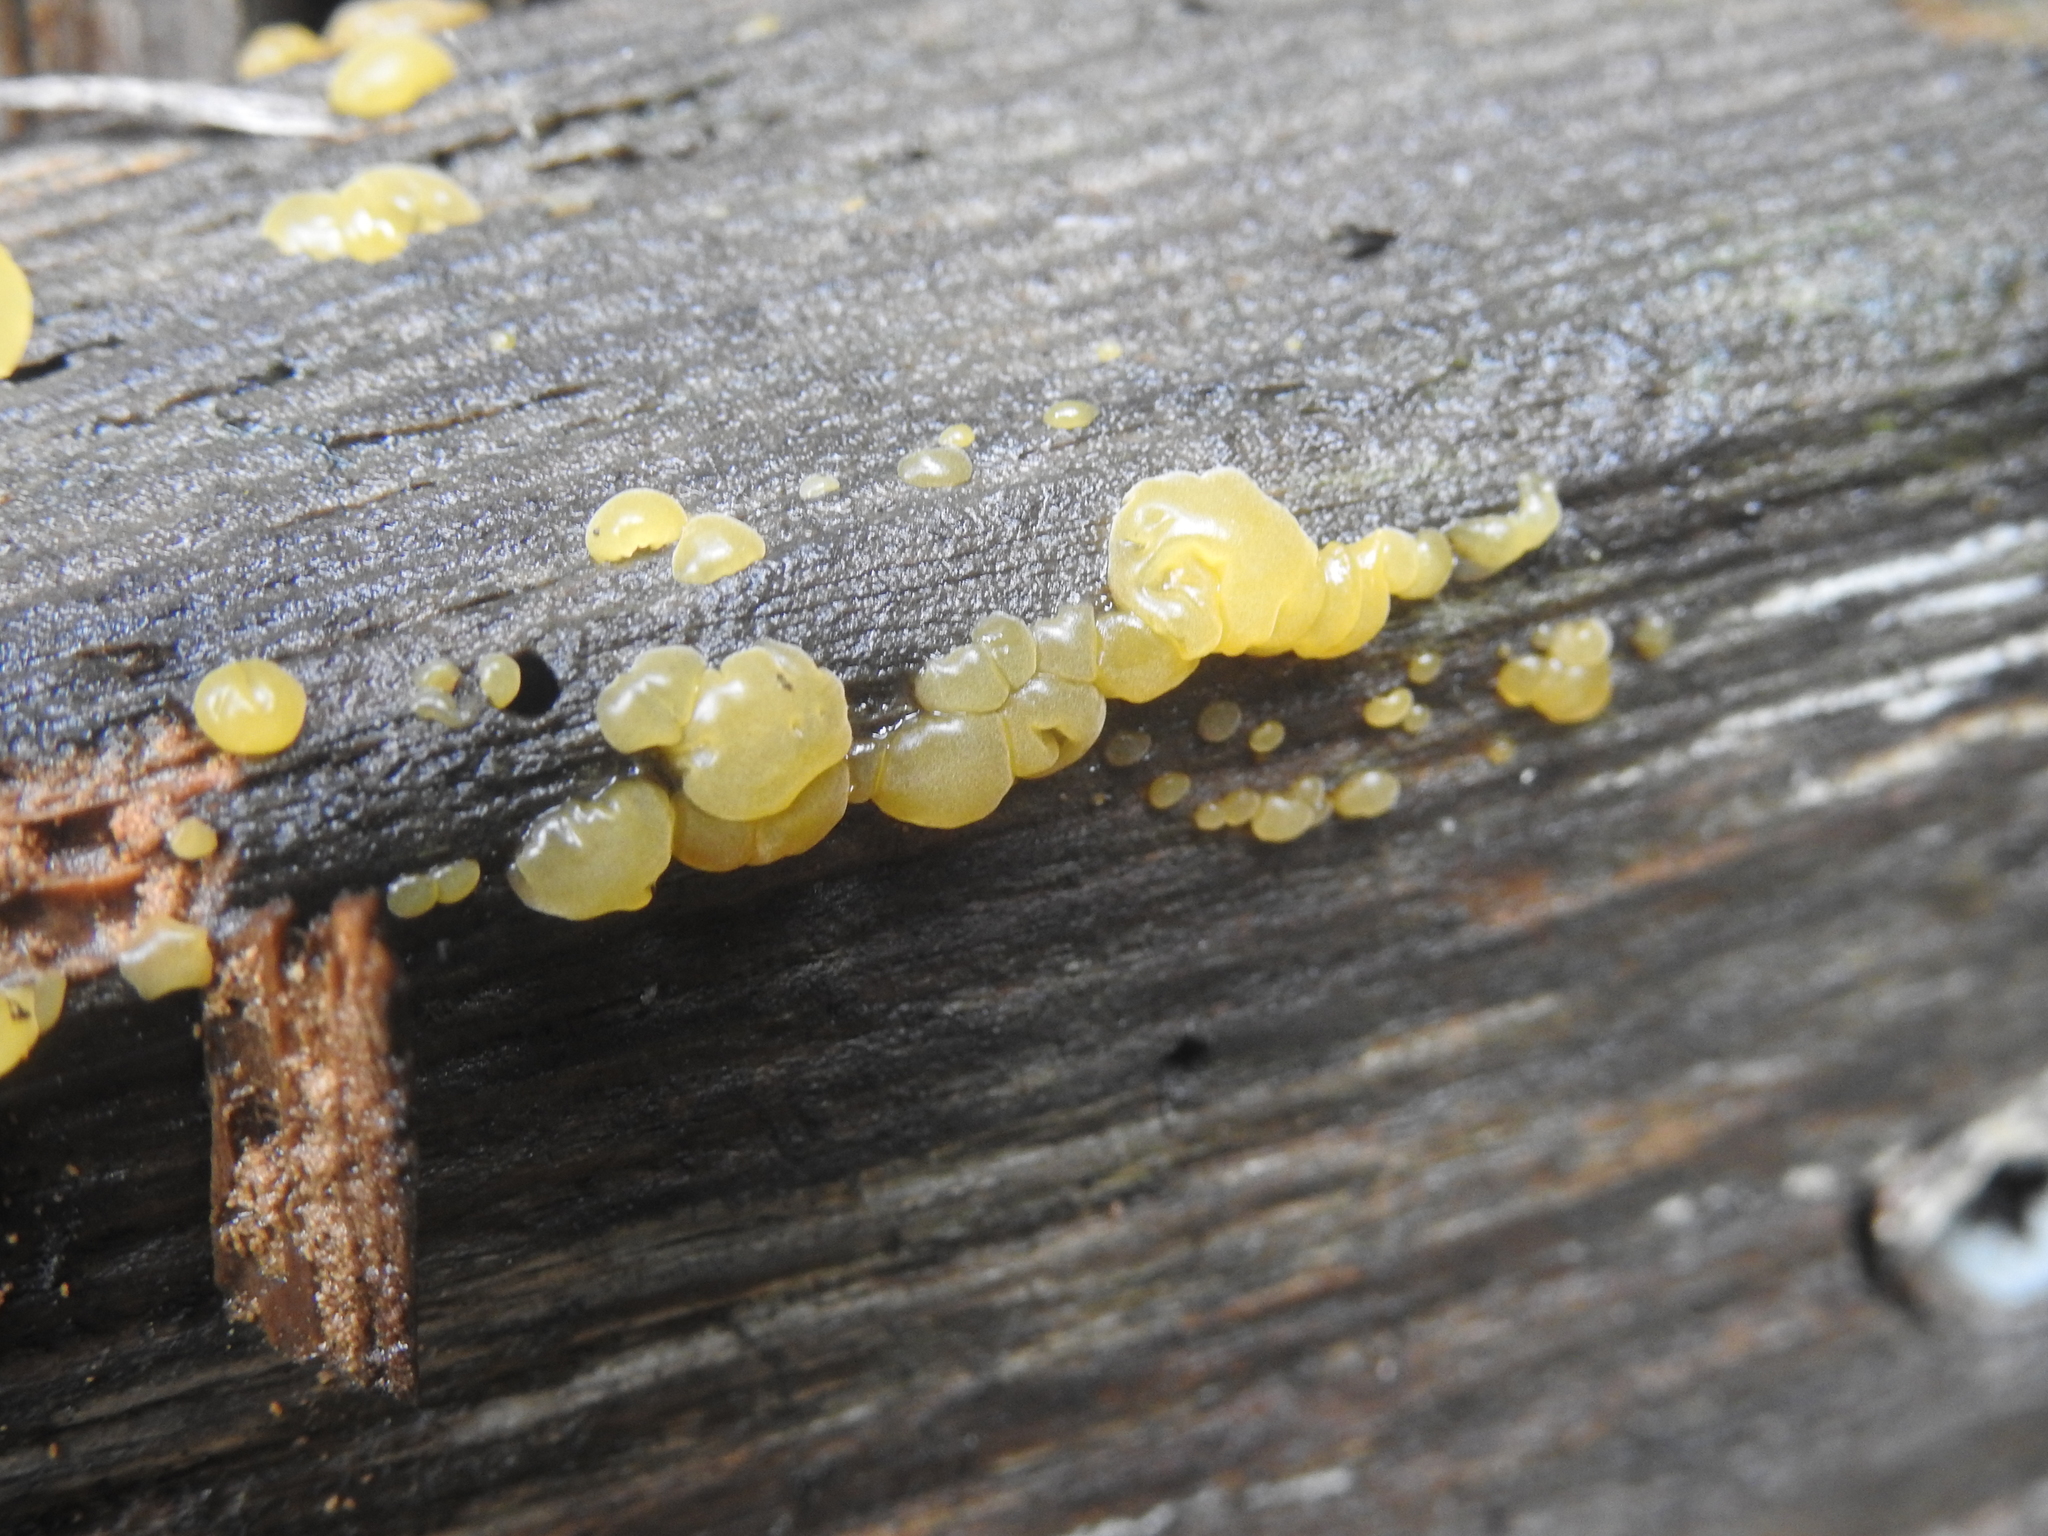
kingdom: Fungi
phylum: Basidiomycota
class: Dacrymycetes
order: Dacrymycetales
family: Dacrymycetaceae
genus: Dacrymyces
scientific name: Dacrymyces stillatus
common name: Common jelly spot
